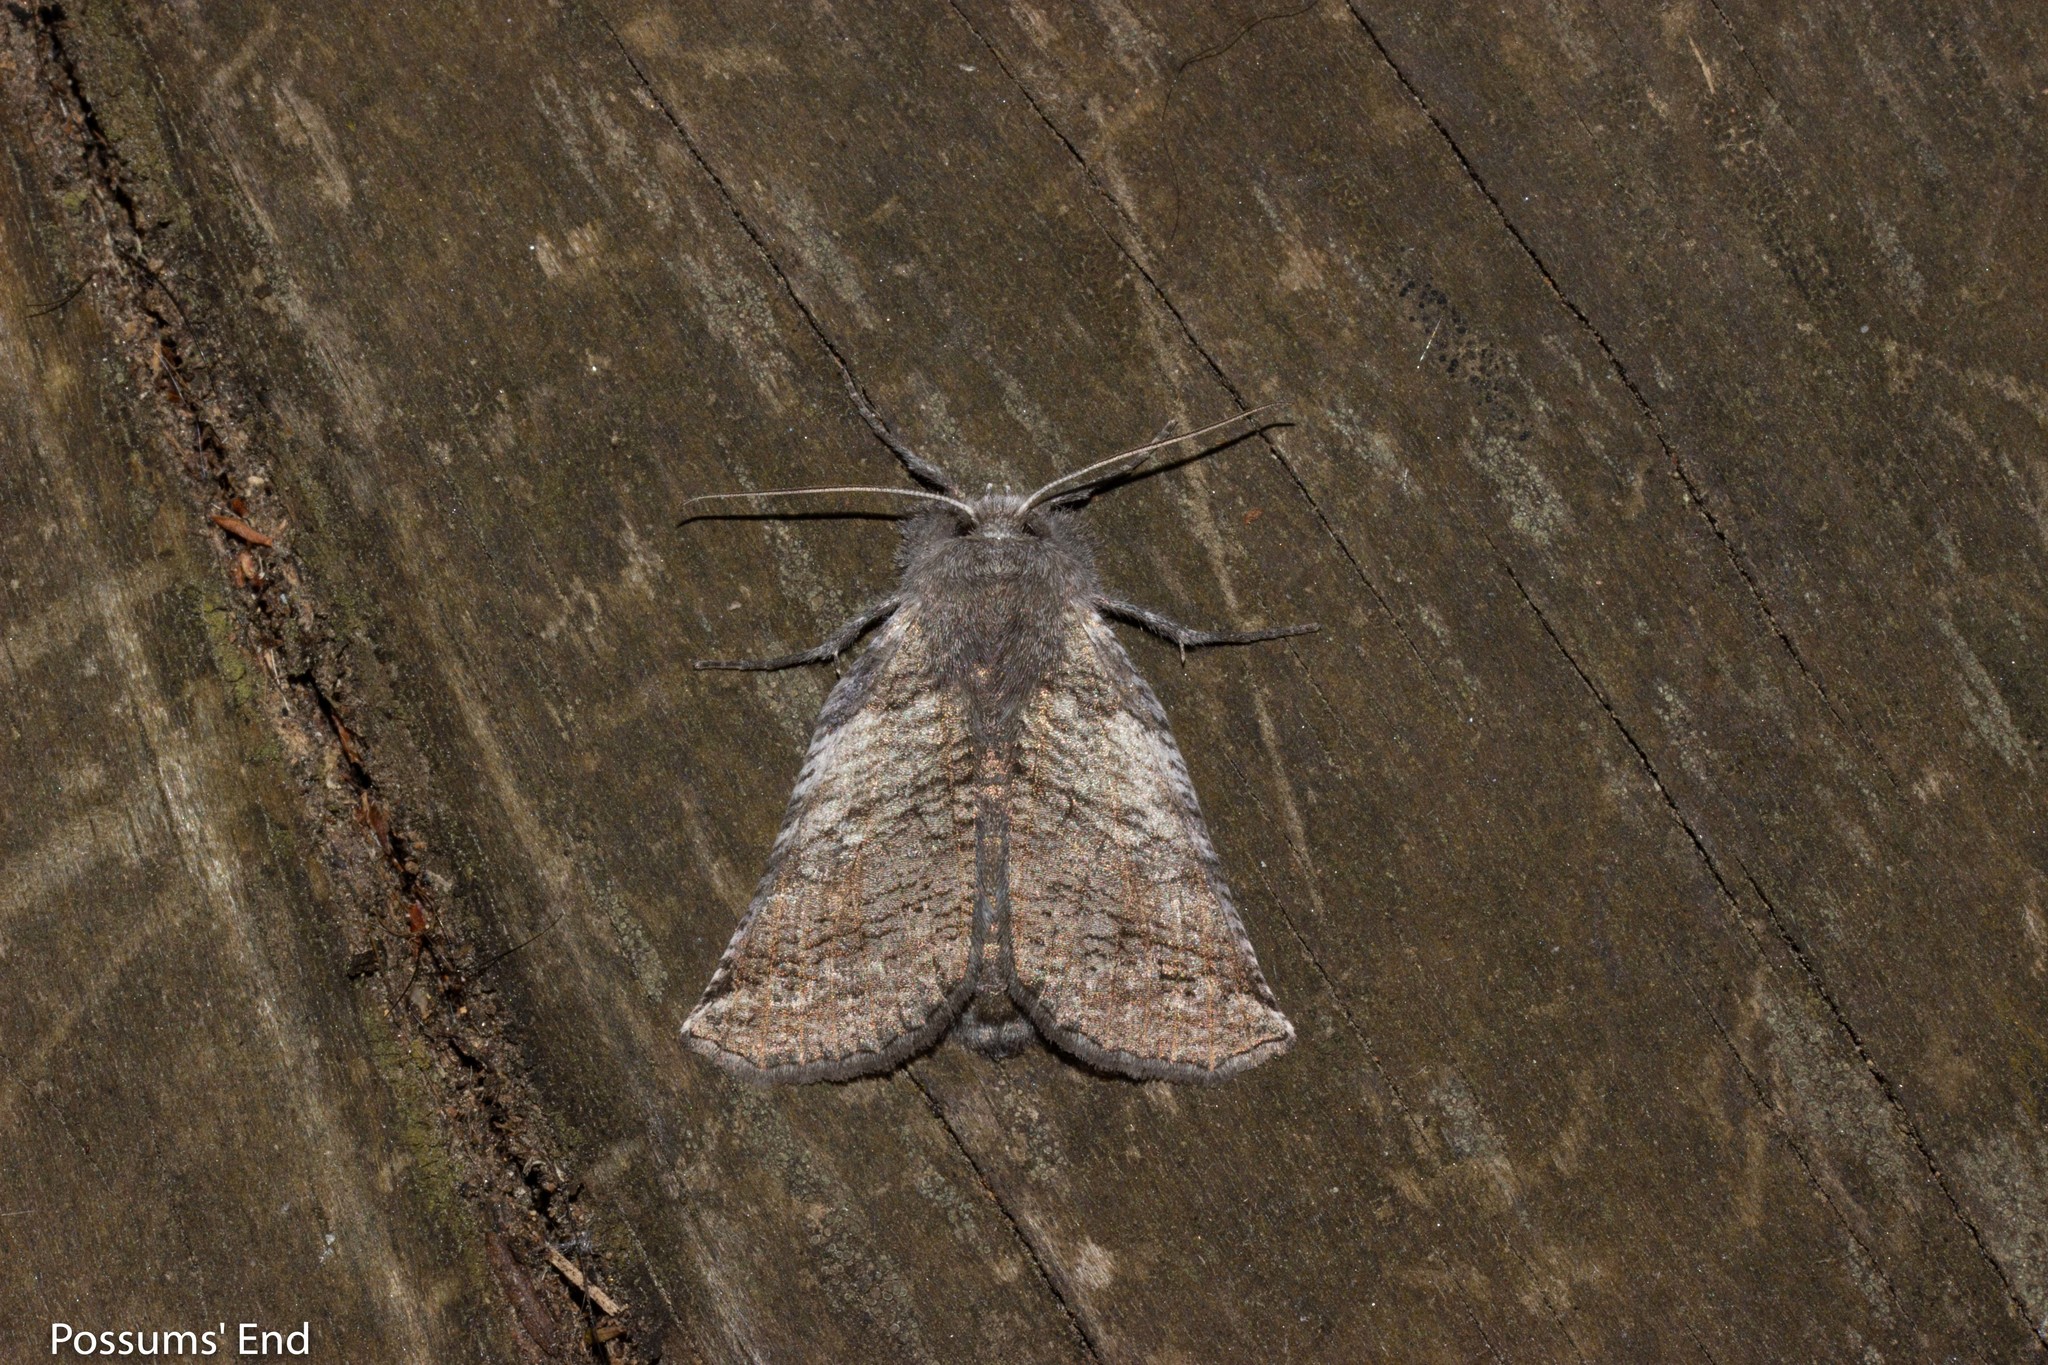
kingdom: Animalia
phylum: Arthropoda
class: Insecta
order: Lepidoptera
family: Geometridae
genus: Declana
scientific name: Declana
